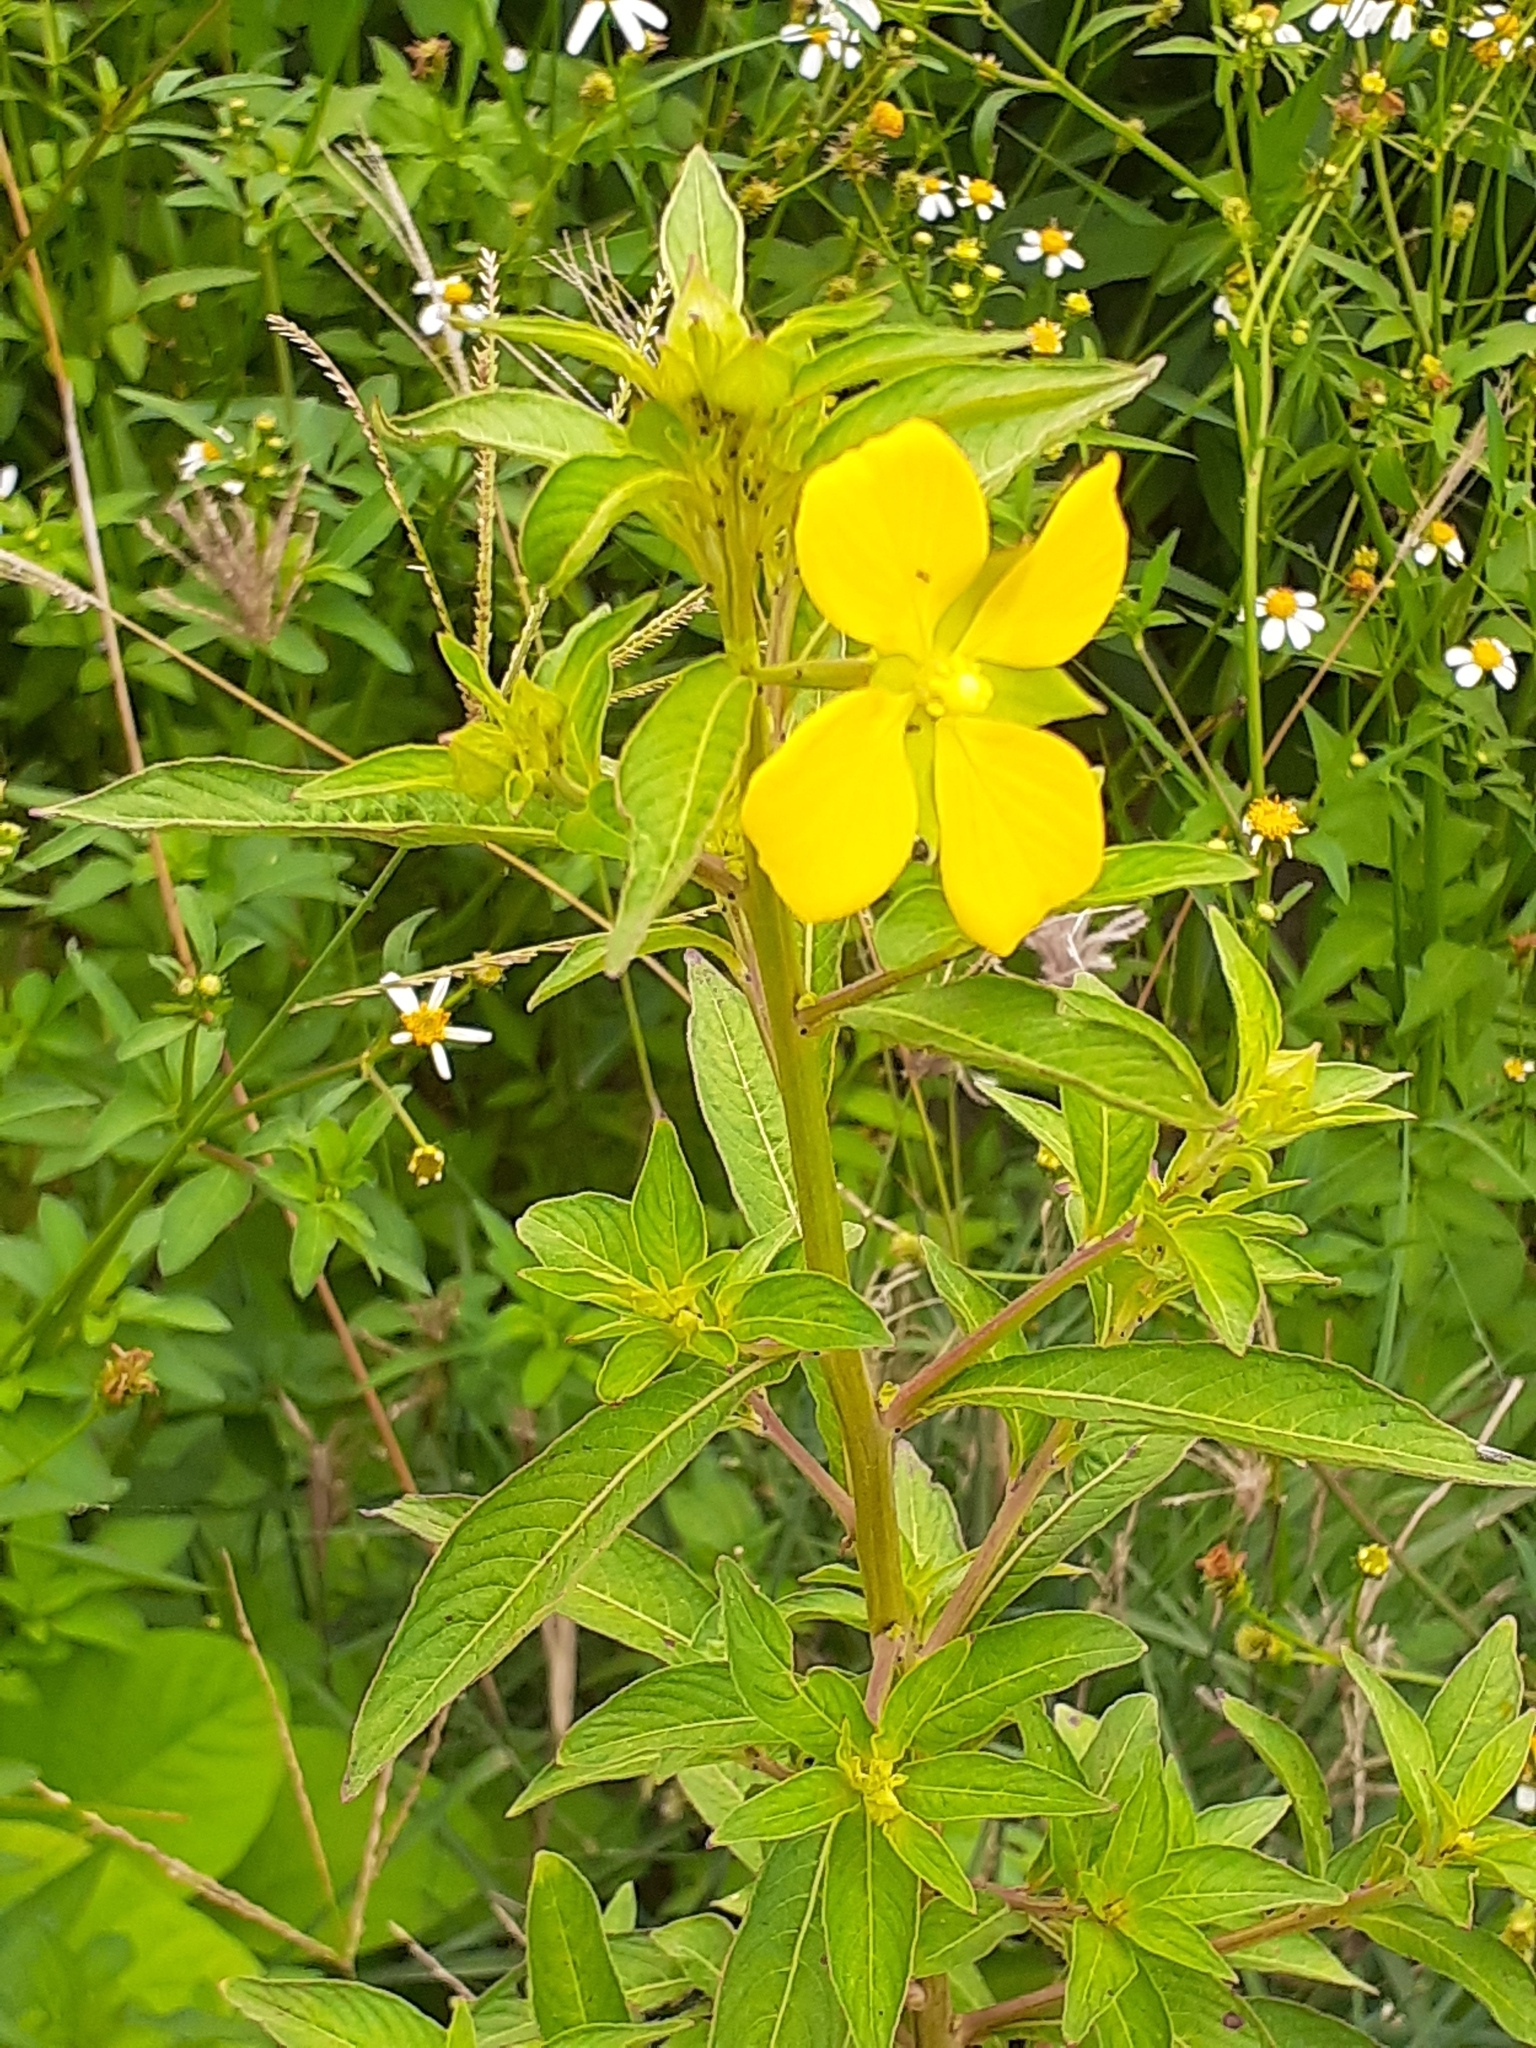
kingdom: Plantae
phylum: Tracheophyta
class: Magnoliopsida
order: Myrtales
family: Onagraceae
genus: Ludwigia
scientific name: Ludwigia octovalvis
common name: Water-primrose
